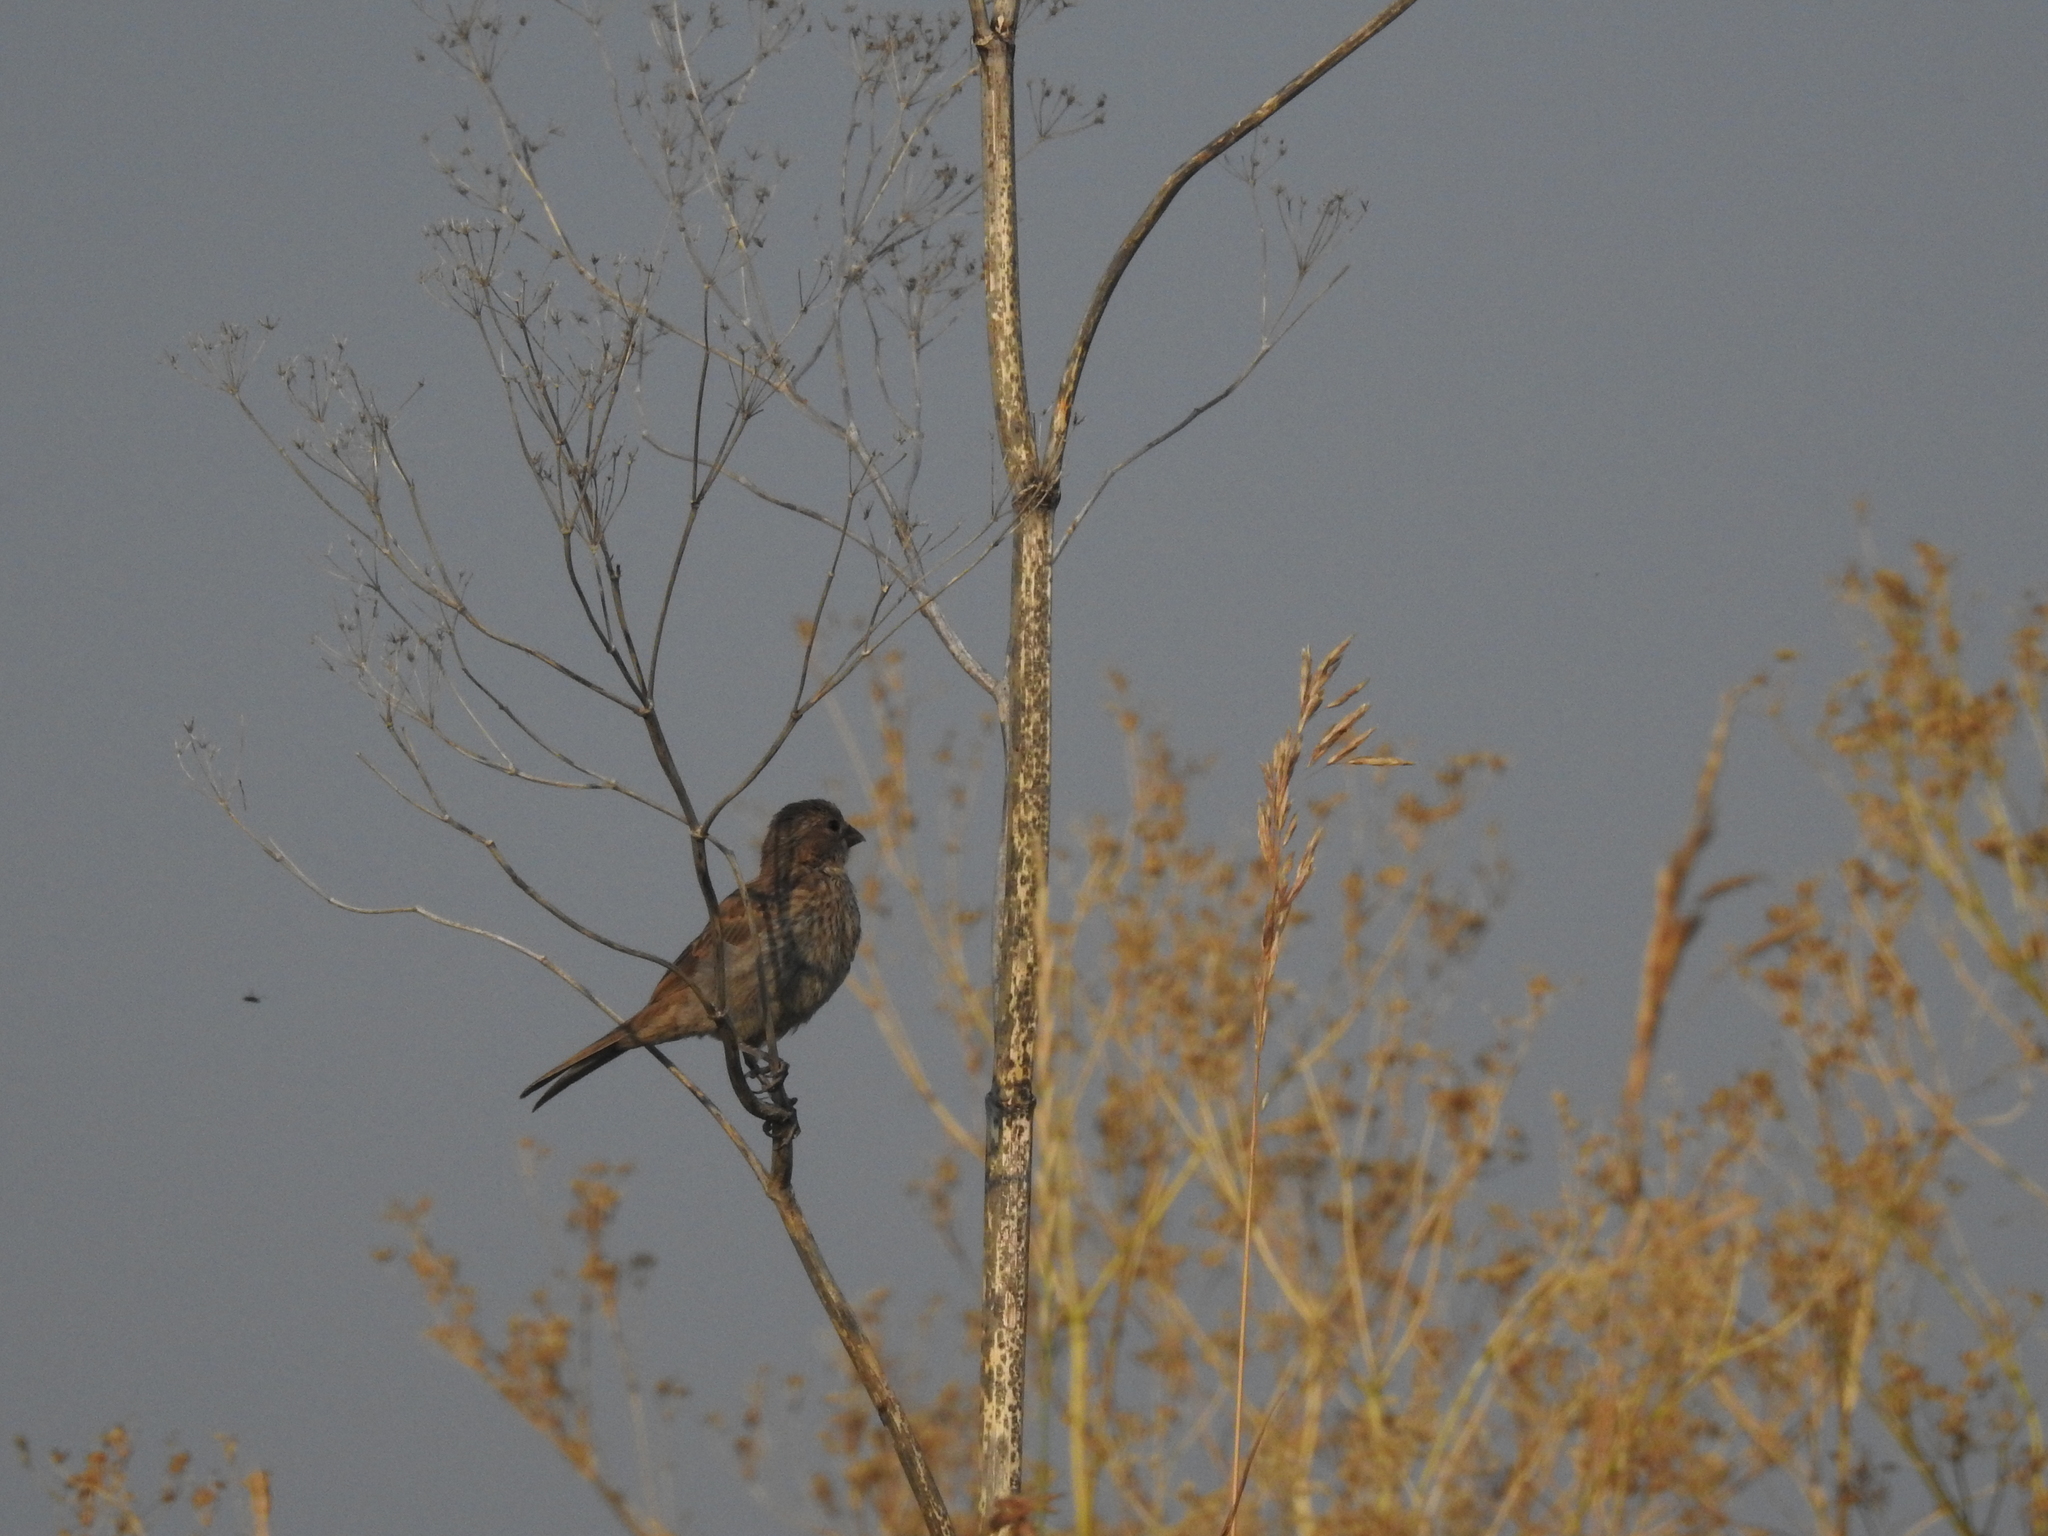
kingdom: Animalia
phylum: Chordata
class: Aves
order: Passeriformes
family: Fringillidae
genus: Haemorhous
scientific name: Haemorhous mexicanus
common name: House finch
